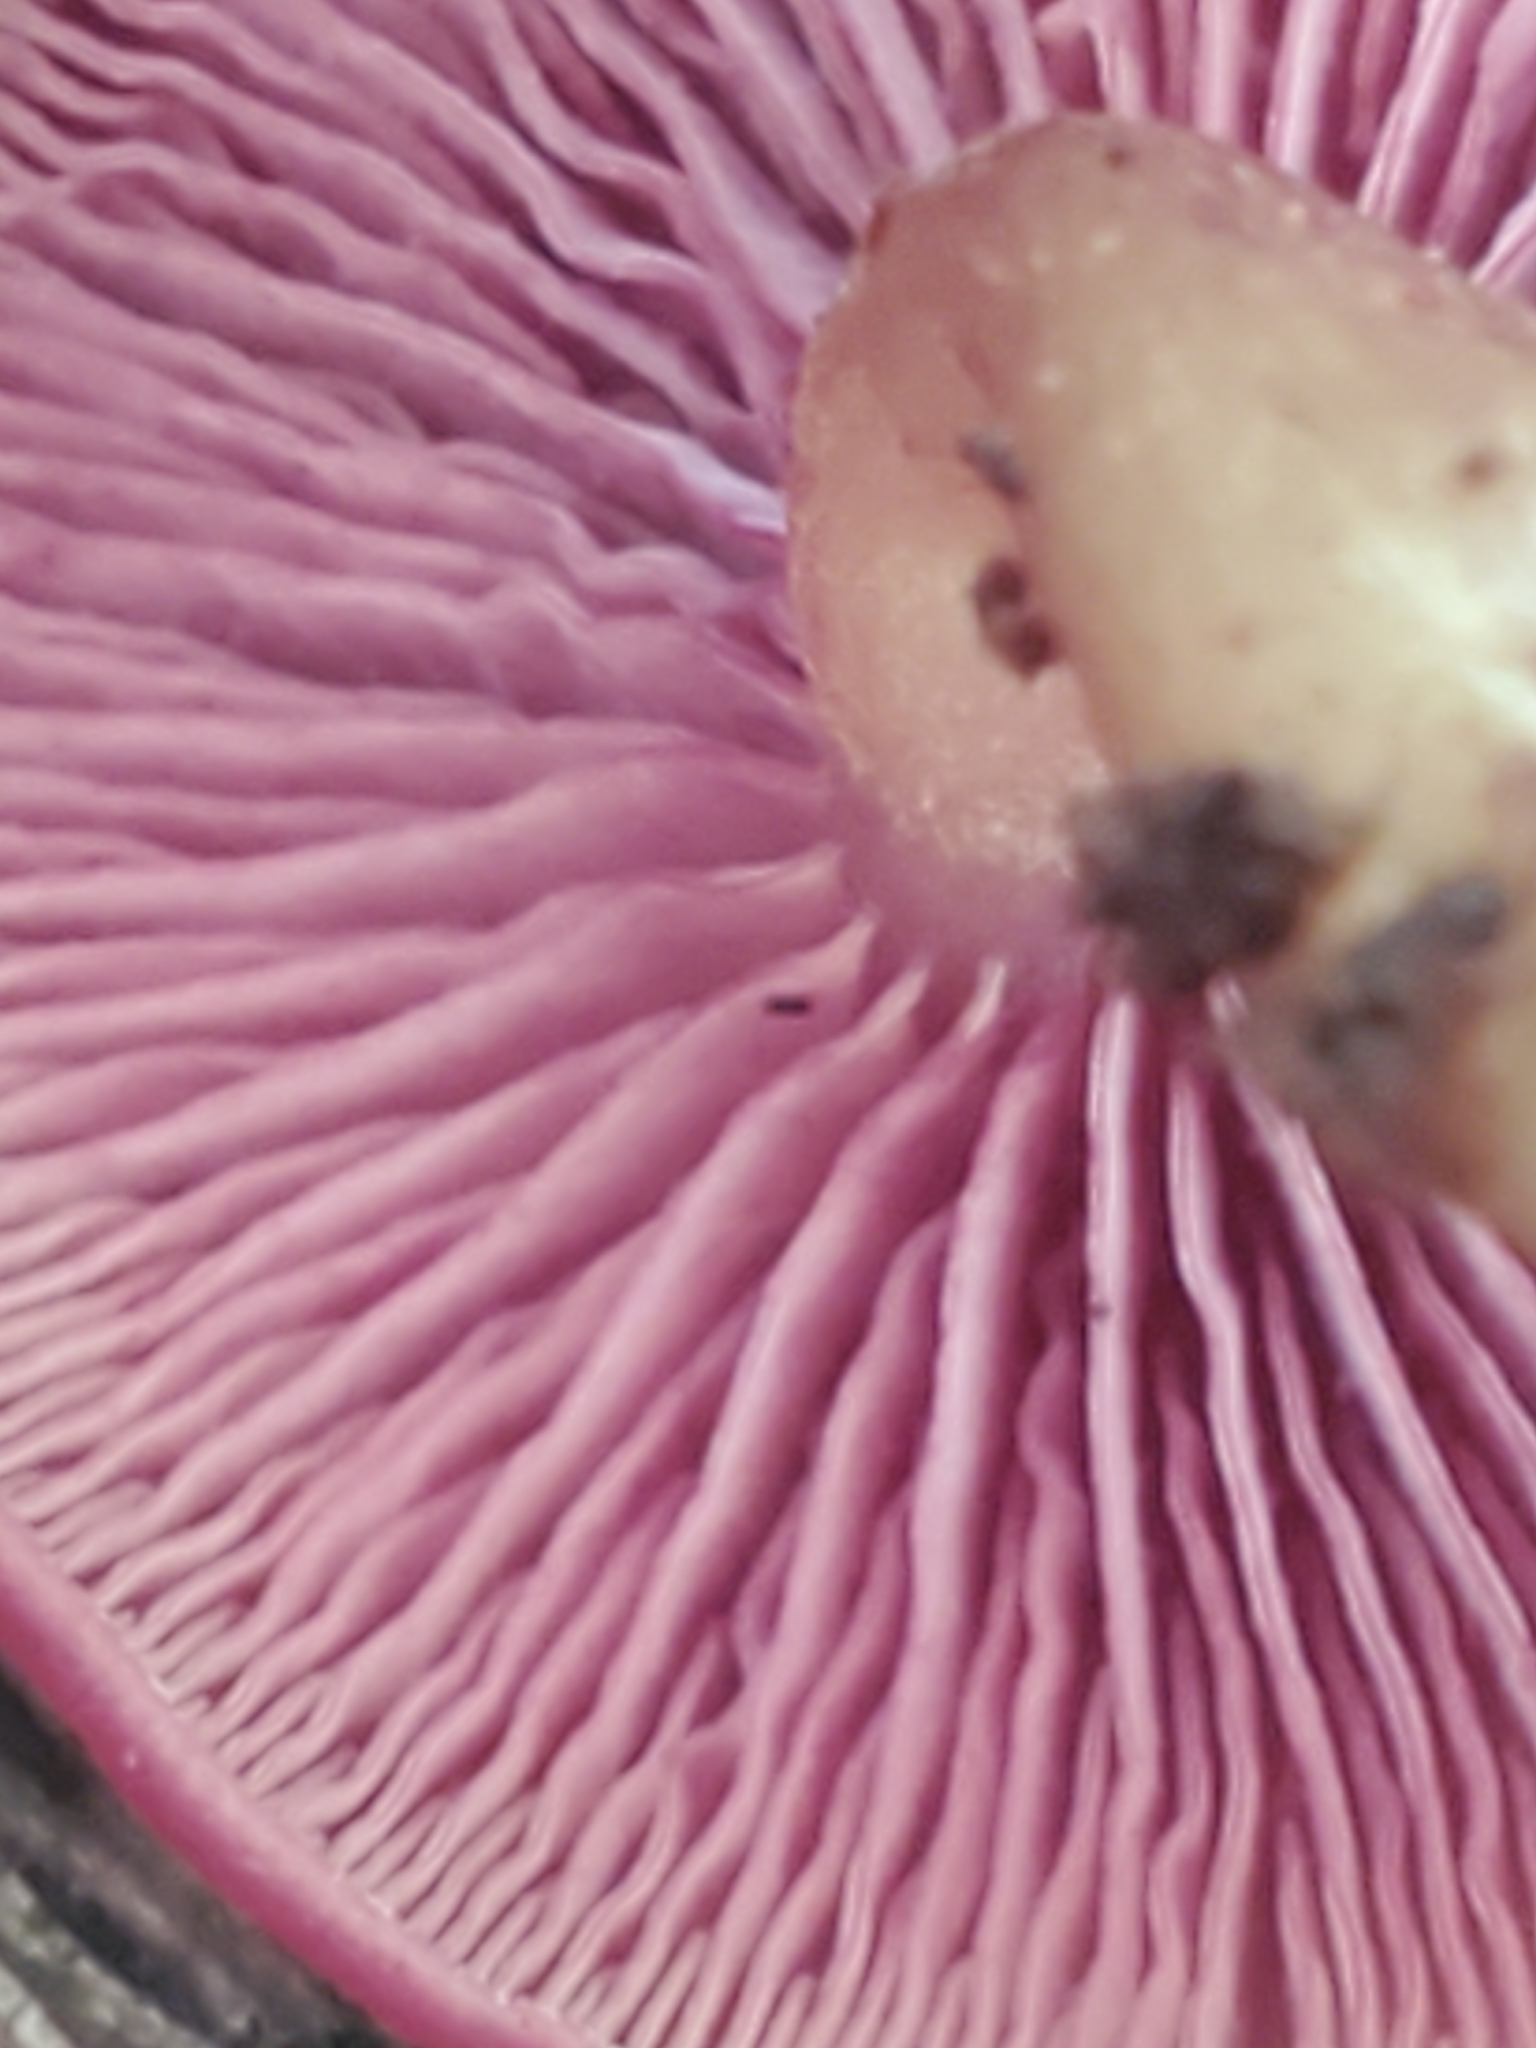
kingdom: Fungi
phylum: Basidiomycota
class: Agaricomycetes
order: Agaricales
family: Callistosporiaceae
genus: Callistosporium
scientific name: Callistosporium purpureomarginatum
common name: Purple-edged lute
